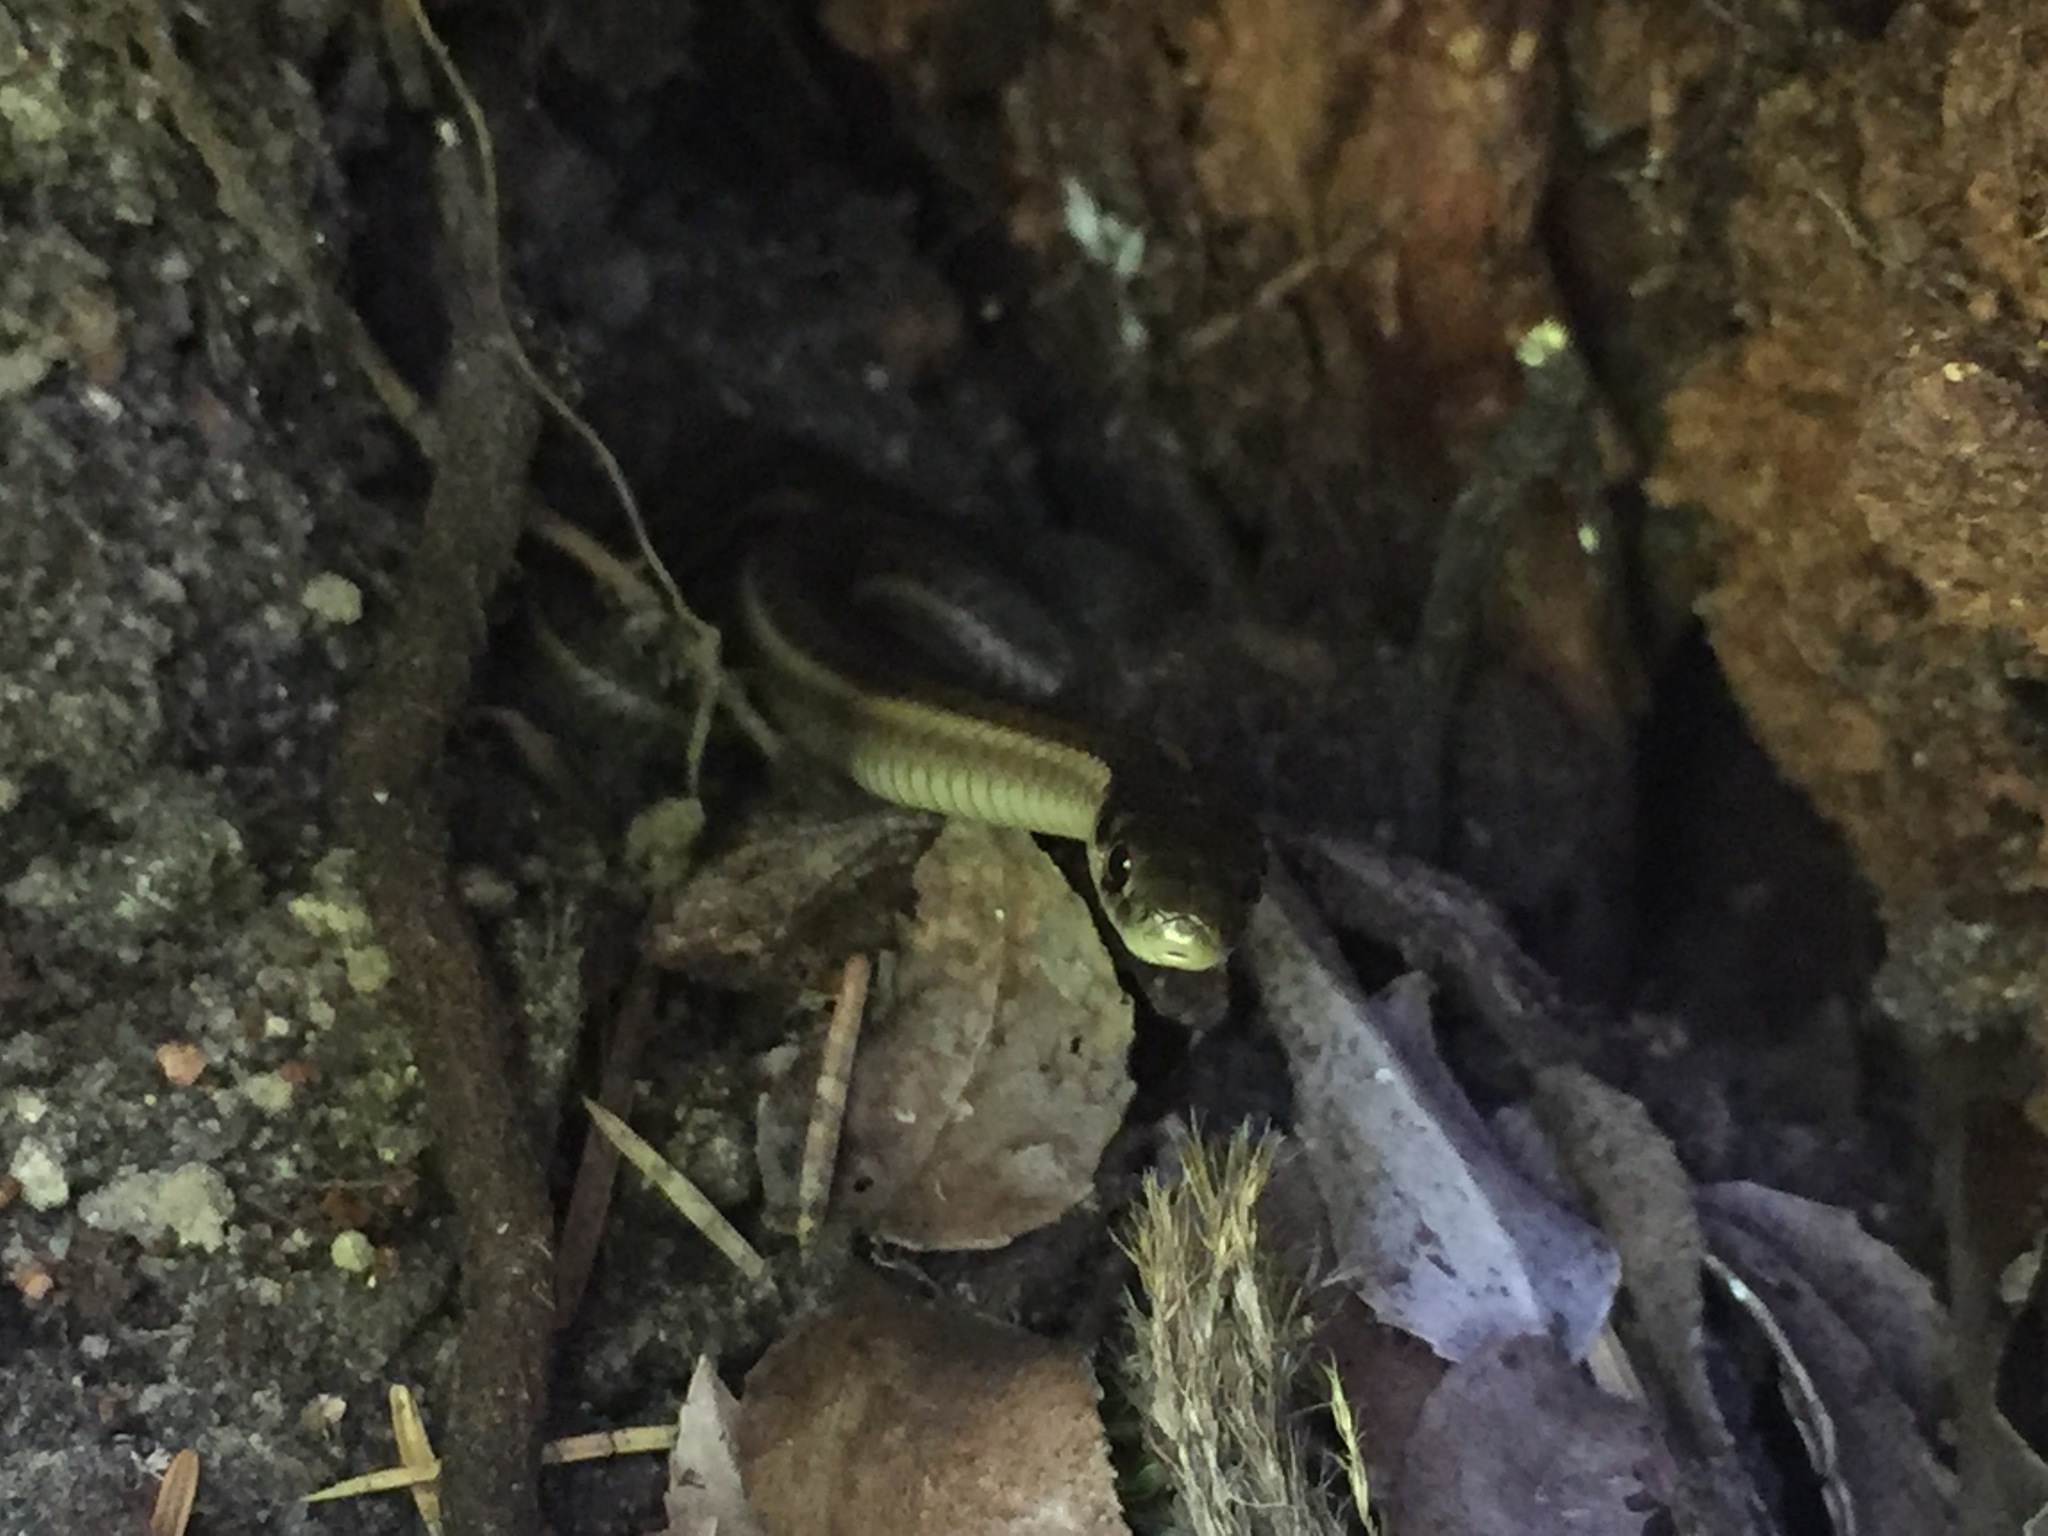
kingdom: Animalia
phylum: Chordata
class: Squamata
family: Colubridae
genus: Thamnophis
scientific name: Thamnophis ordinoides
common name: Northwestern garter snake
